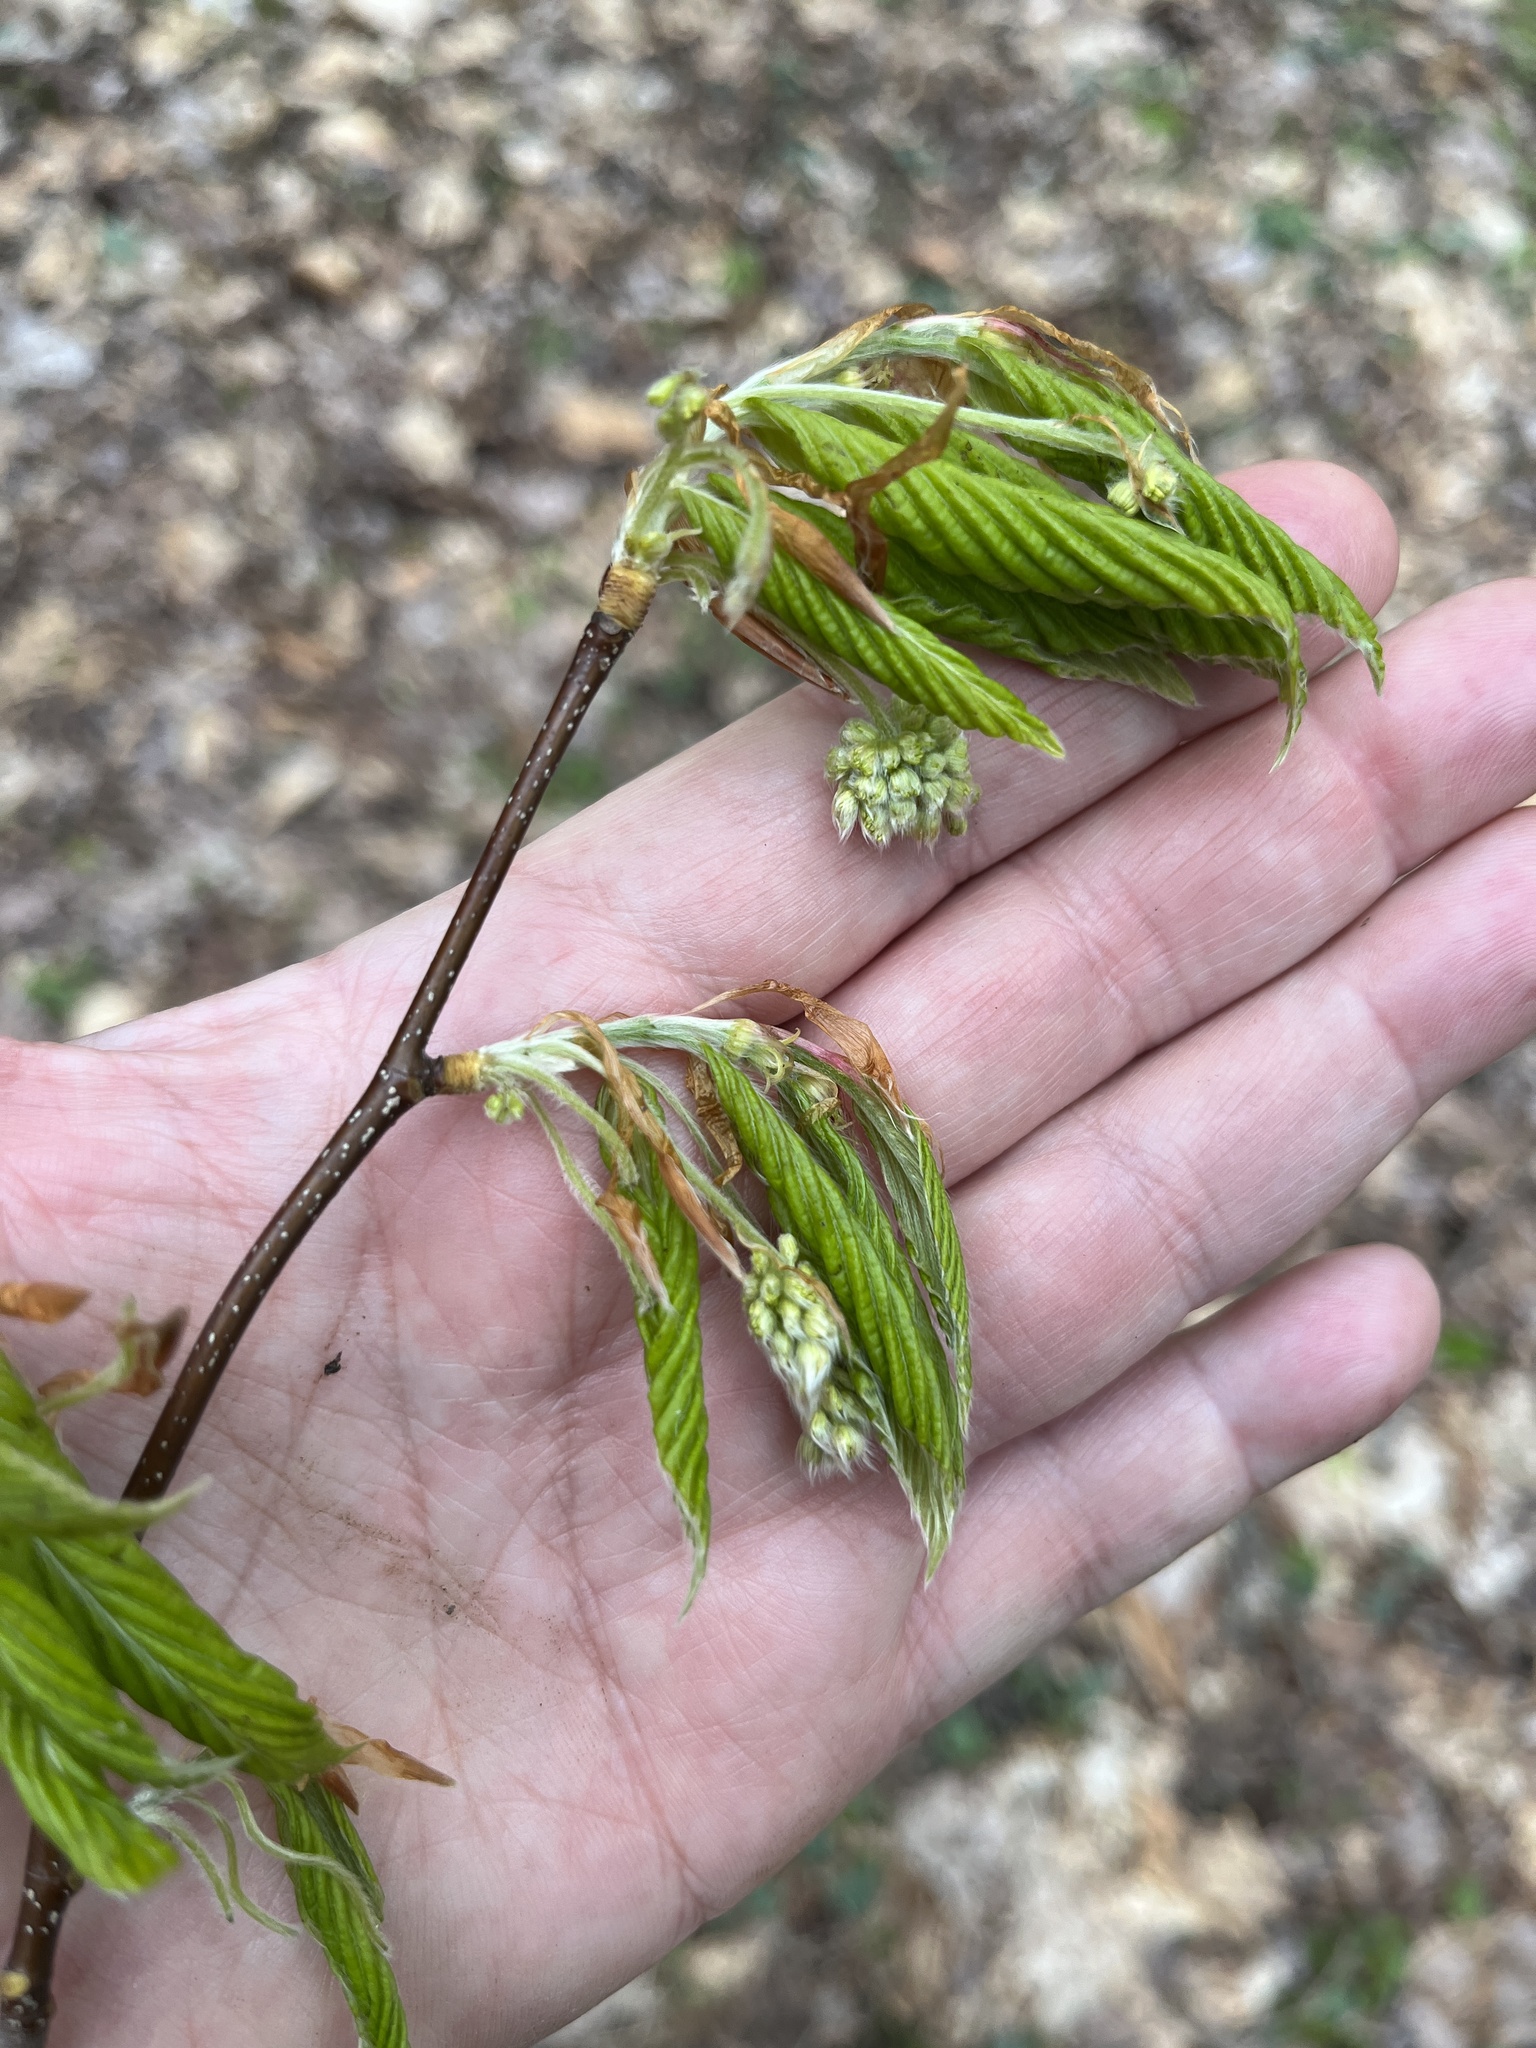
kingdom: Plantae
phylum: Tracheophyta
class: Magnoliopsida
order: Fagales
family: Fagaceae
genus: Fagus
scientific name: Fagus grandifolia
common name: American beech
